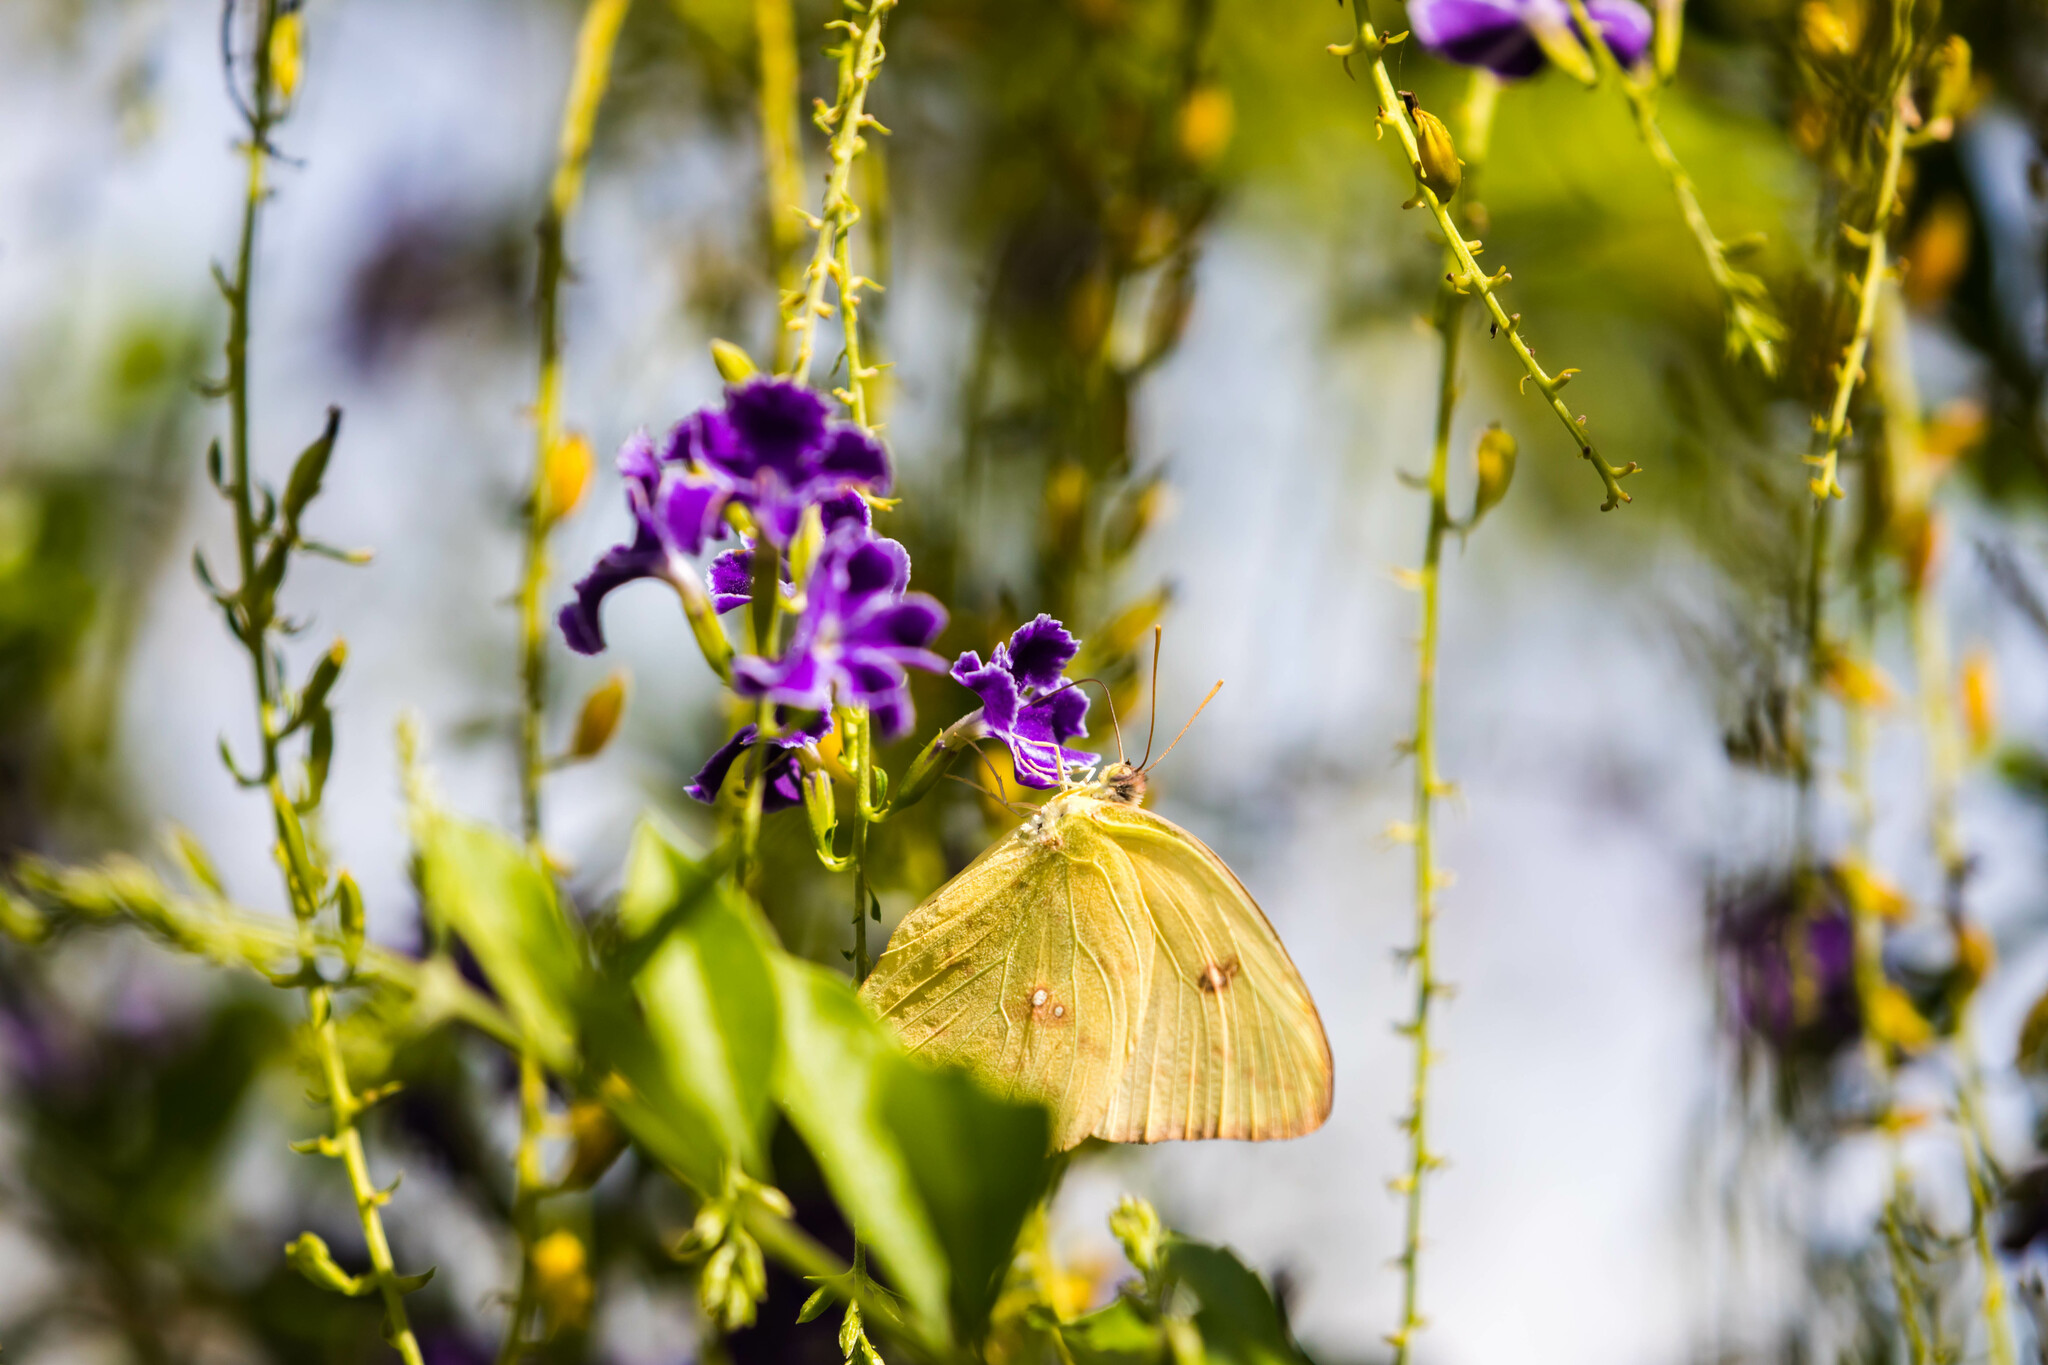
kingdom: Animalia
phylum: Arthropoda
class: Insecta
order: Lepidoptera
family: Pieridae
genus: Phoebis
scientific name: Phoebis sennae
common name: Cloudless sulphur
